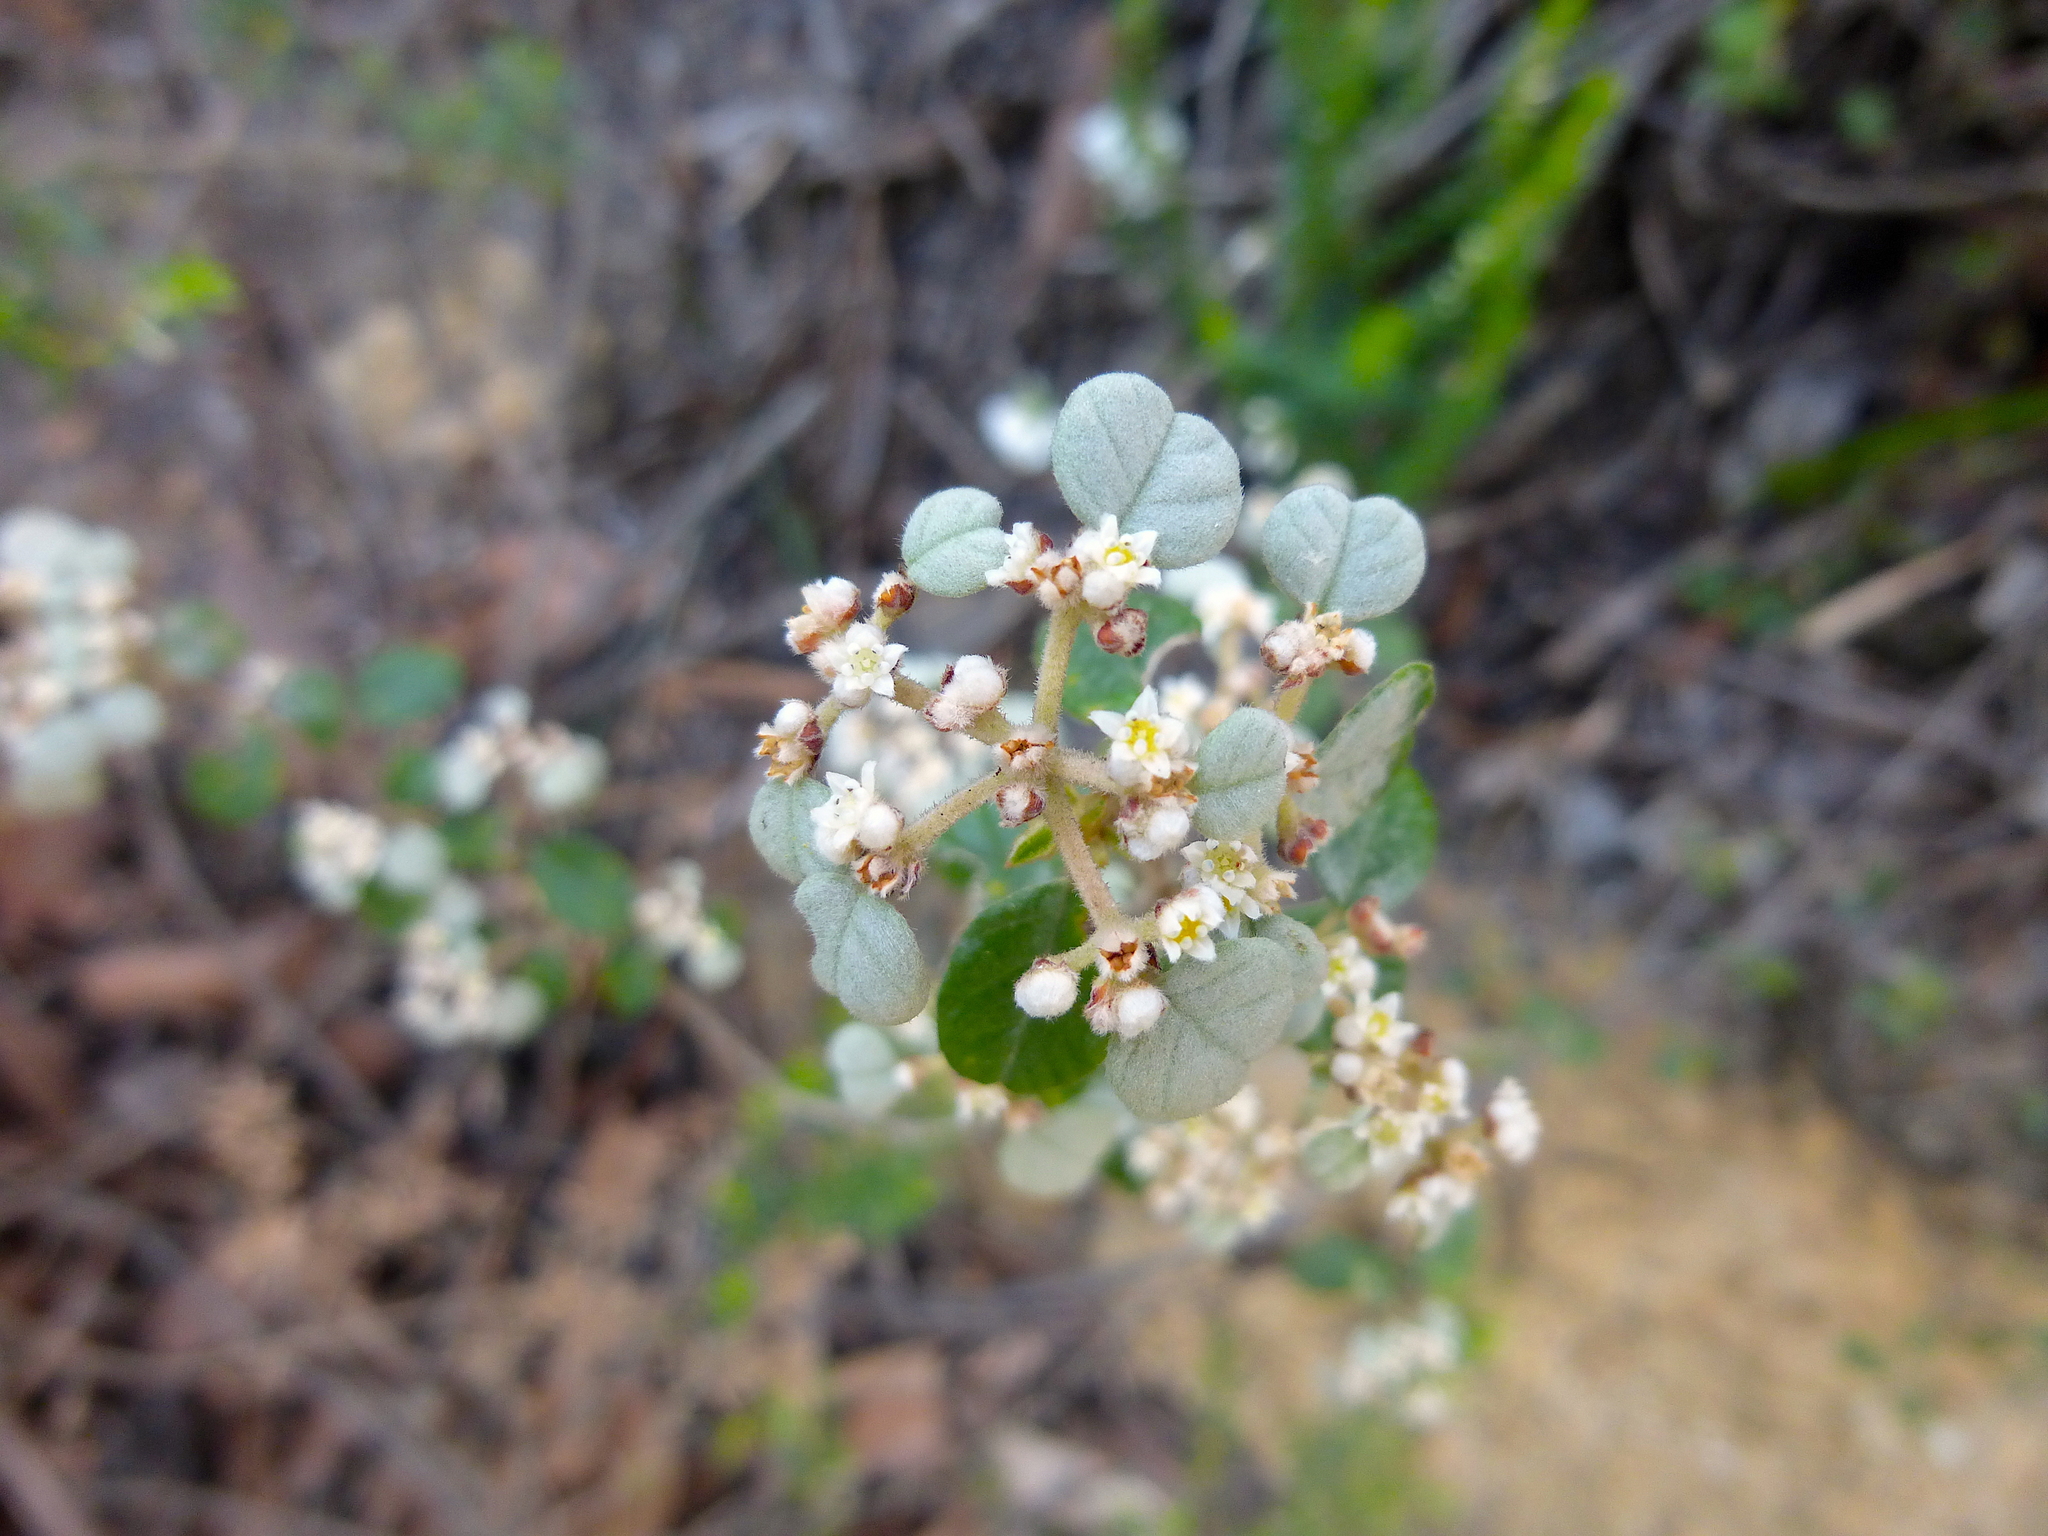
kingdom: Plantae
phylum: Tracheophyta
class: Magnoliopsida
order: Rosales
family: Rhamnaceae
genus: Spyridium
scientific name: Spyridium parvifolium
